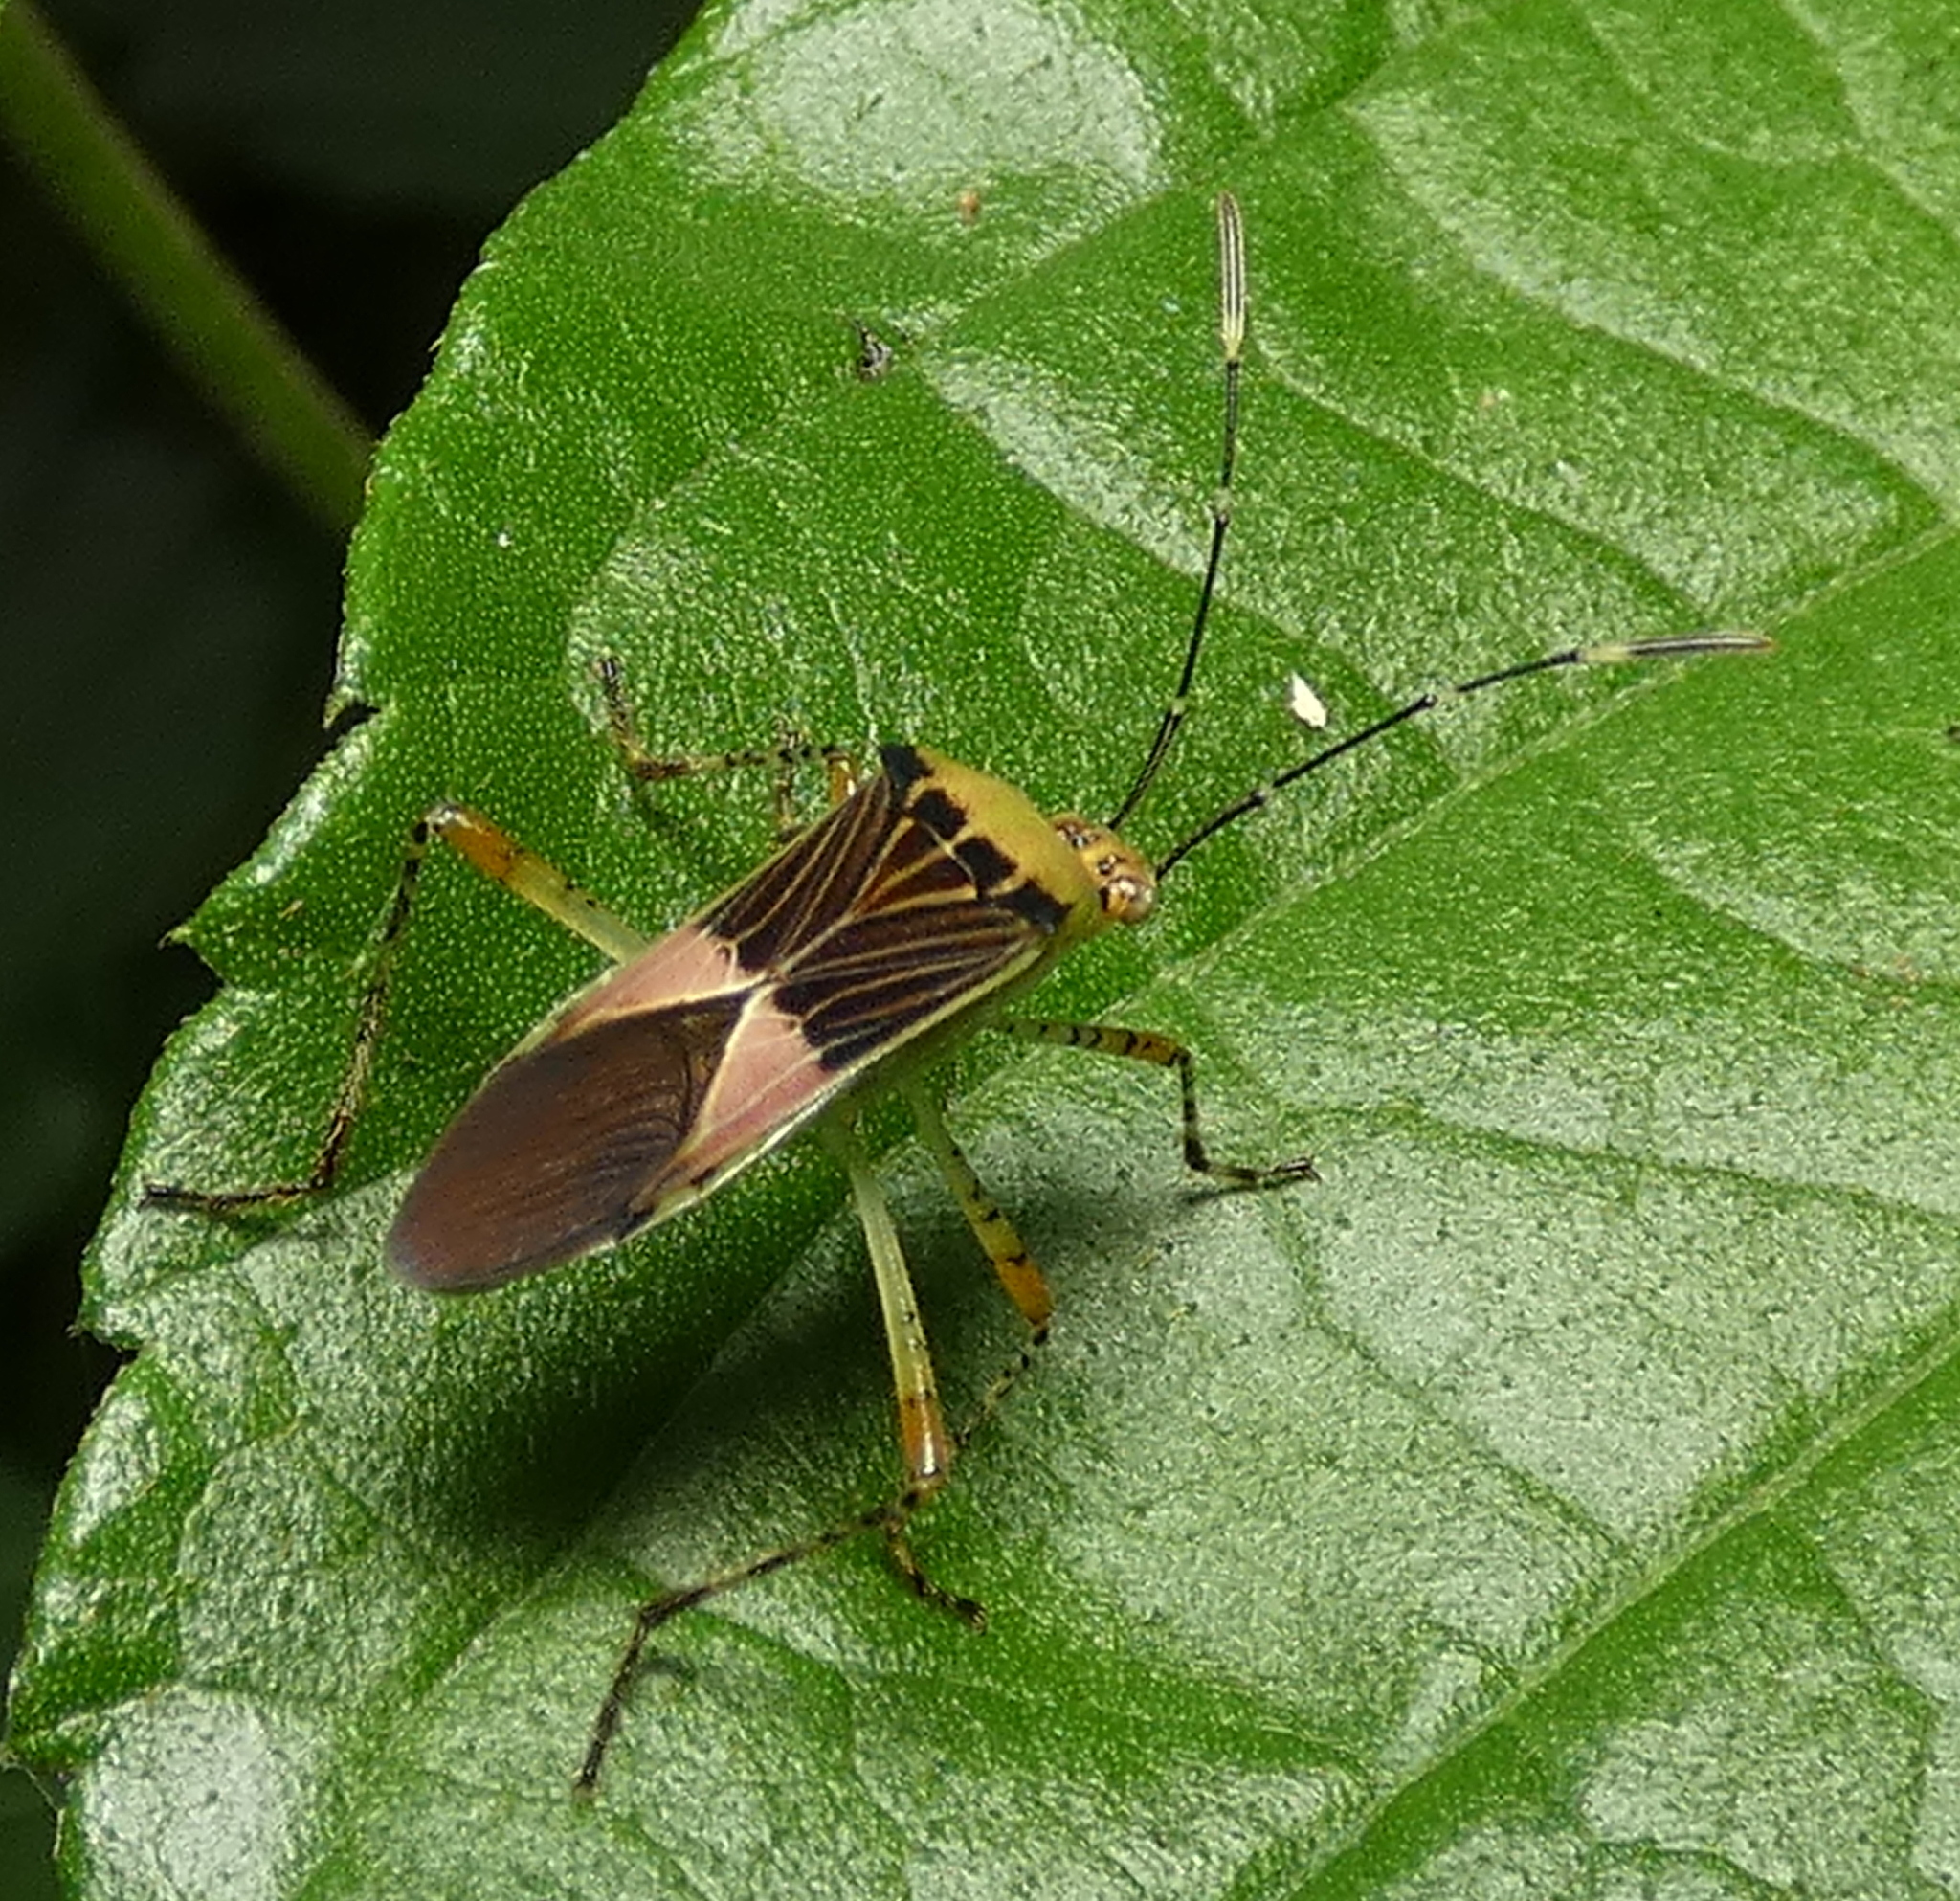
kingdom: Animalia
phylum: Arthropoda
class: Insecta
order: Hemiptera
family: Coreidae
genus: Hypselonotus
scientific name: Hypselonotus fulvus
